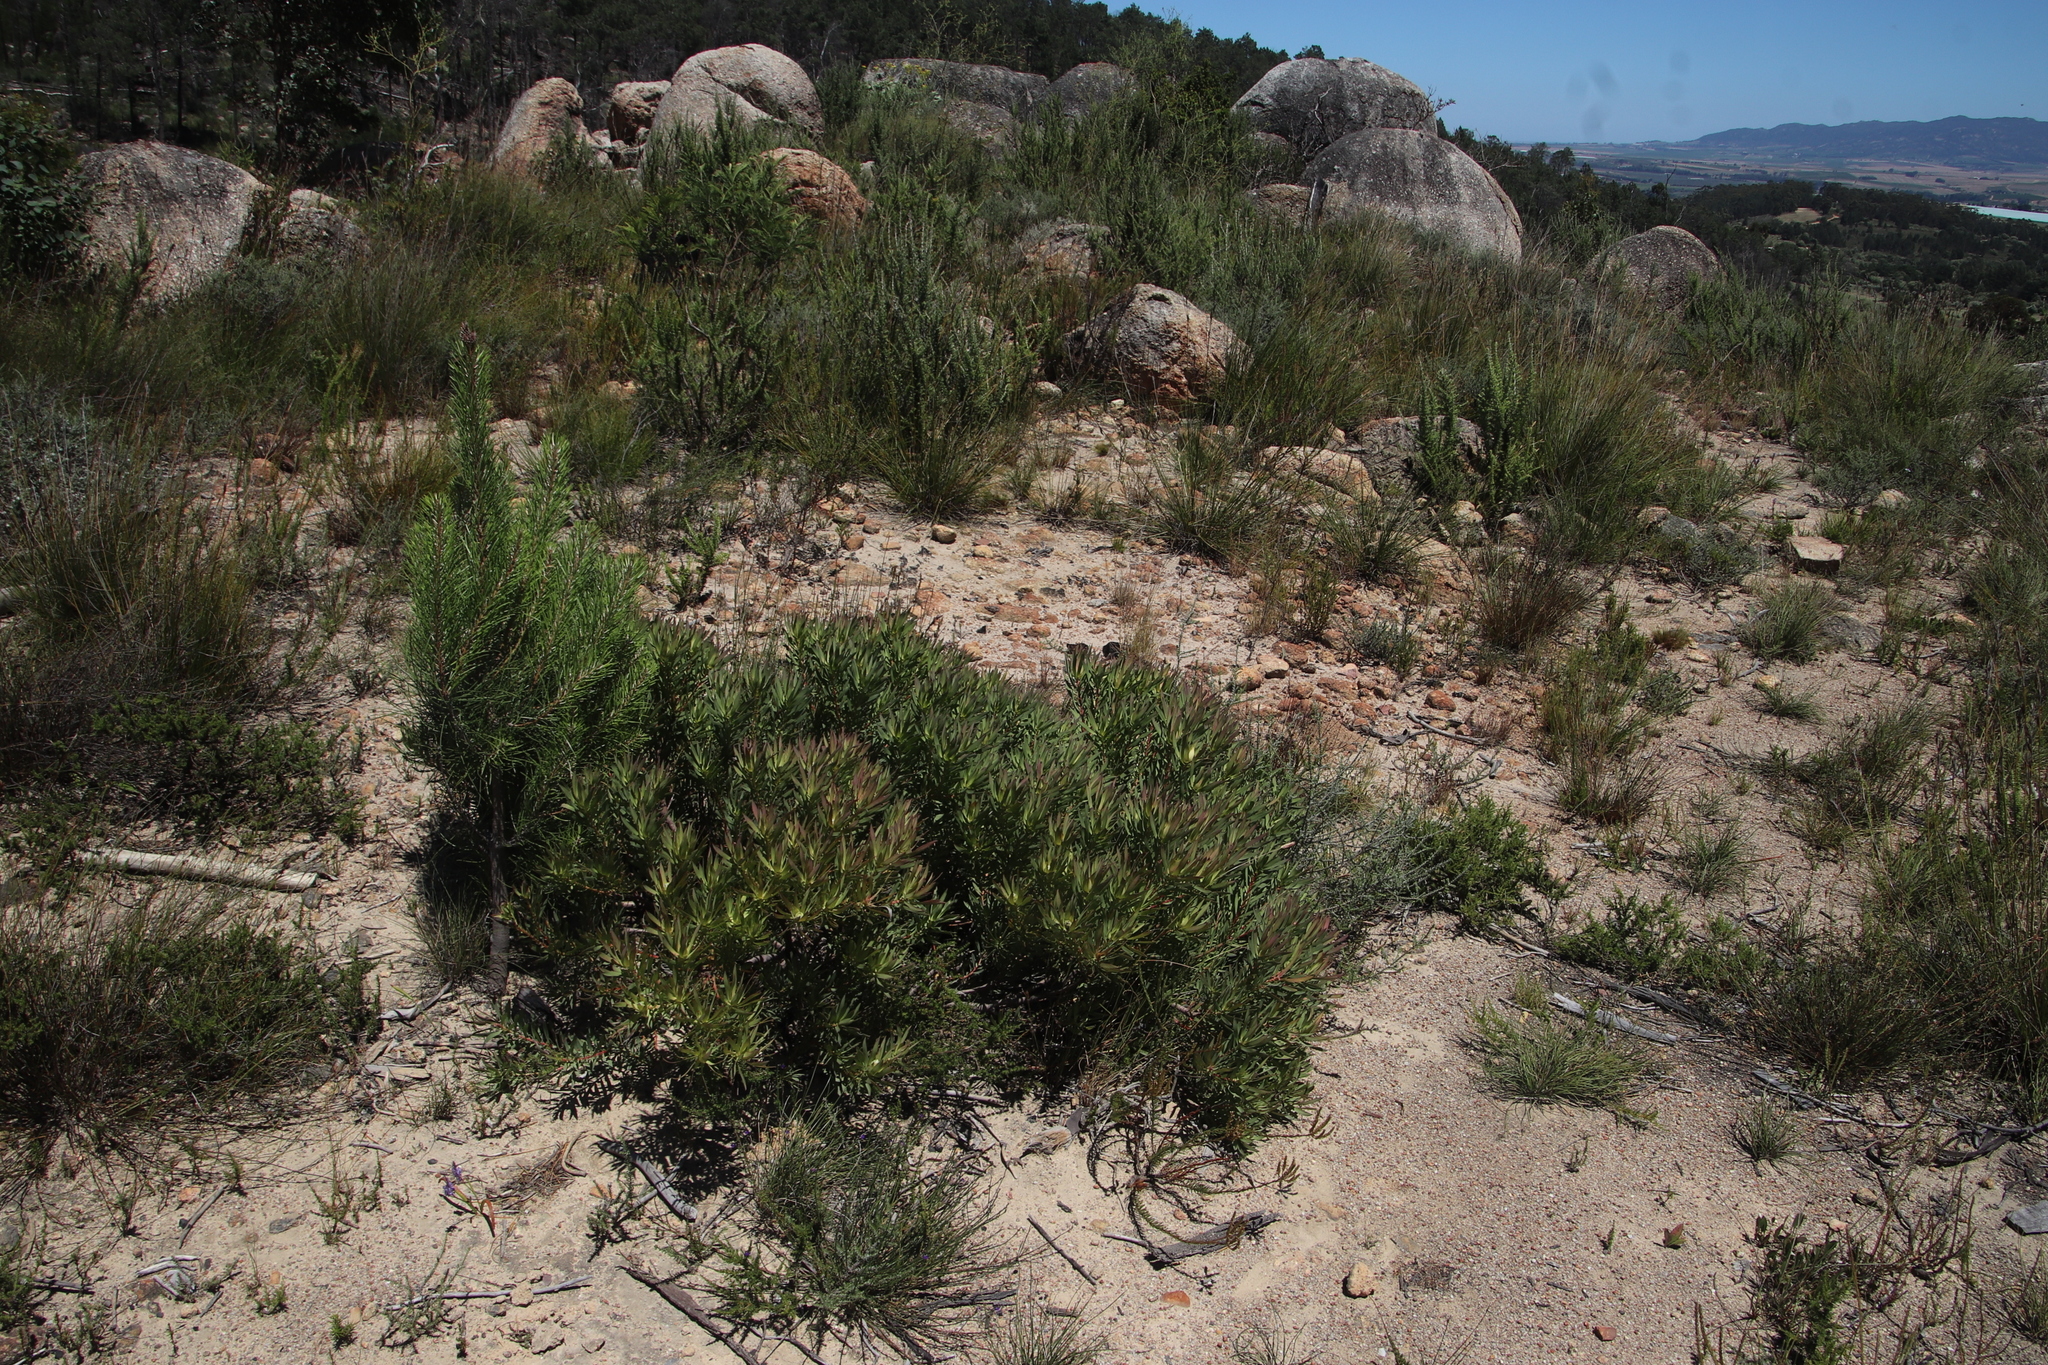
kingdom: Plantae
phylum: Tracheophyta
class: Magnoliopsida
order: Proteales
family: Proteaceae
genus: Leucadendron
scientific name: Leucadendron salignum
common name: Common sunshine conebush
